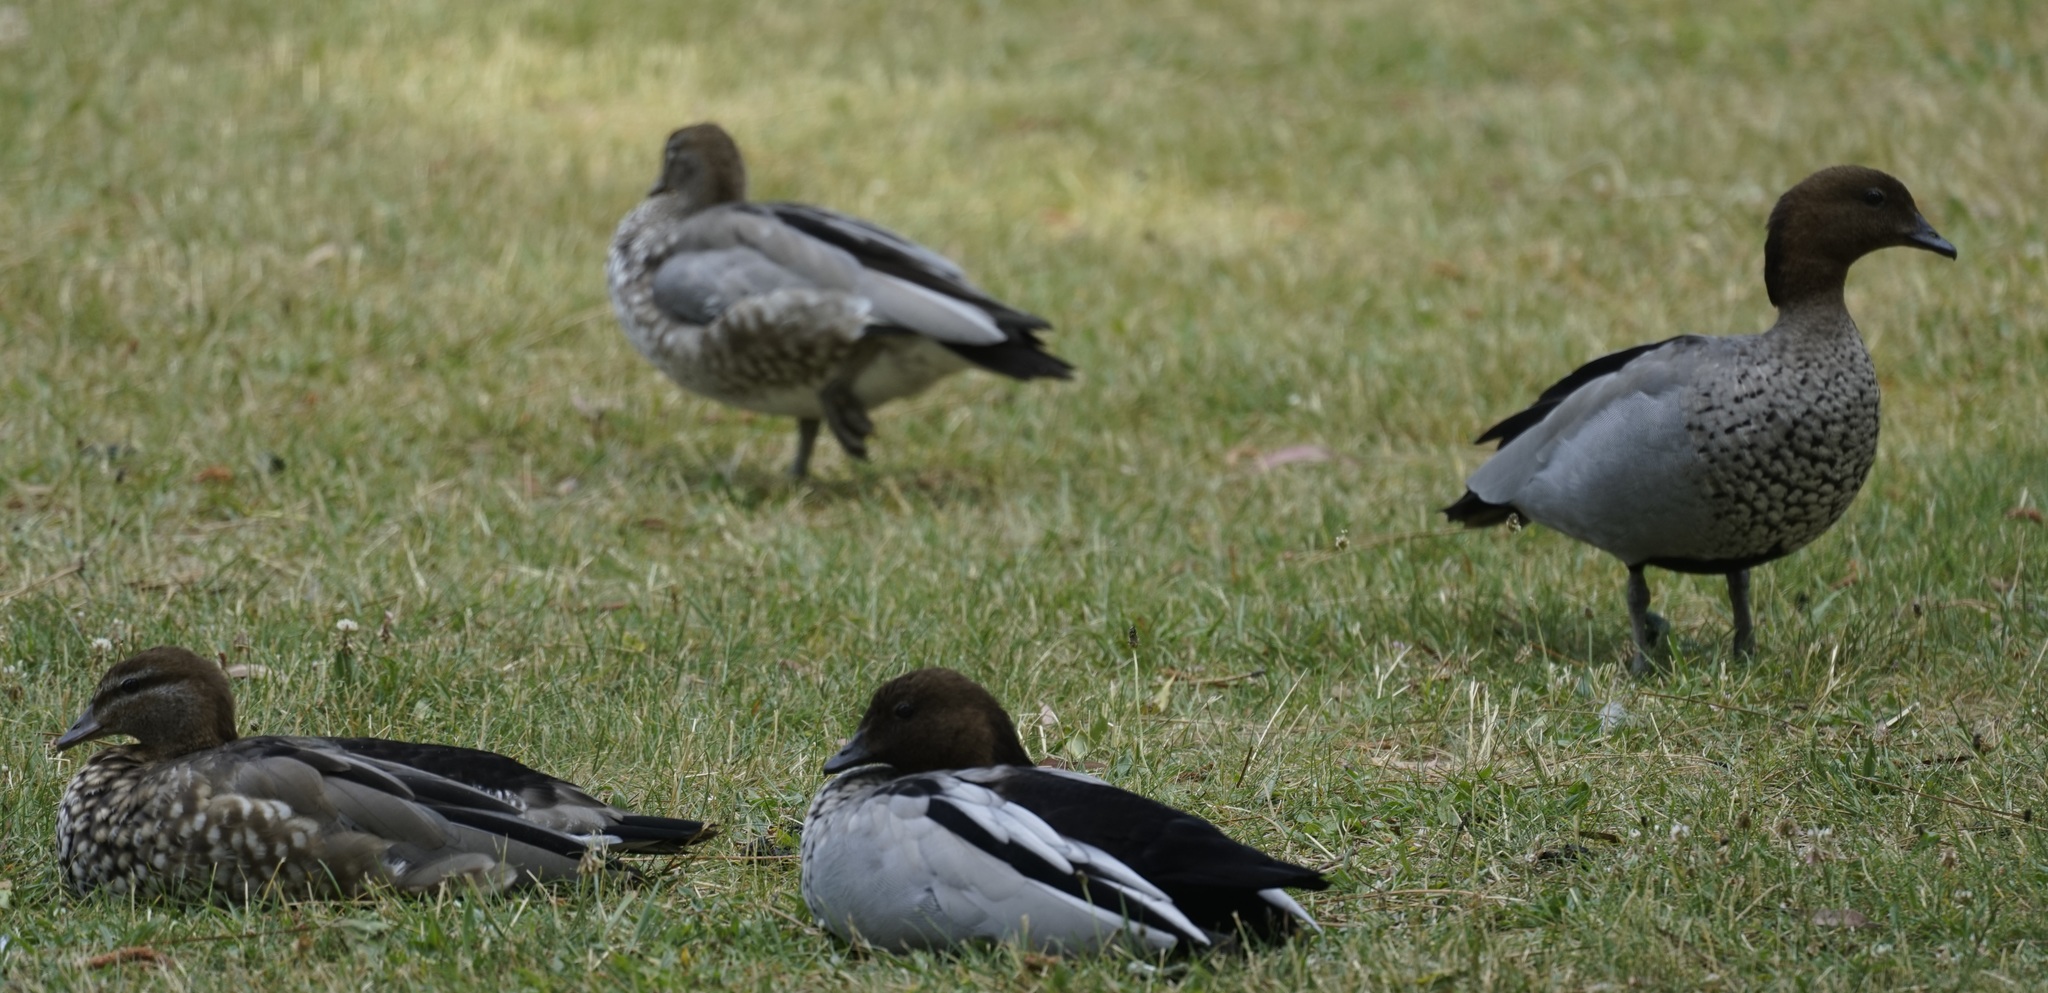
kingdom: Animalia
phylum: Chordata
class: Aves
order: Anseriformes
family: Anatidae
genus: Chenonetta
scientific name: Chenonetta jubata
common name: Maned duck
